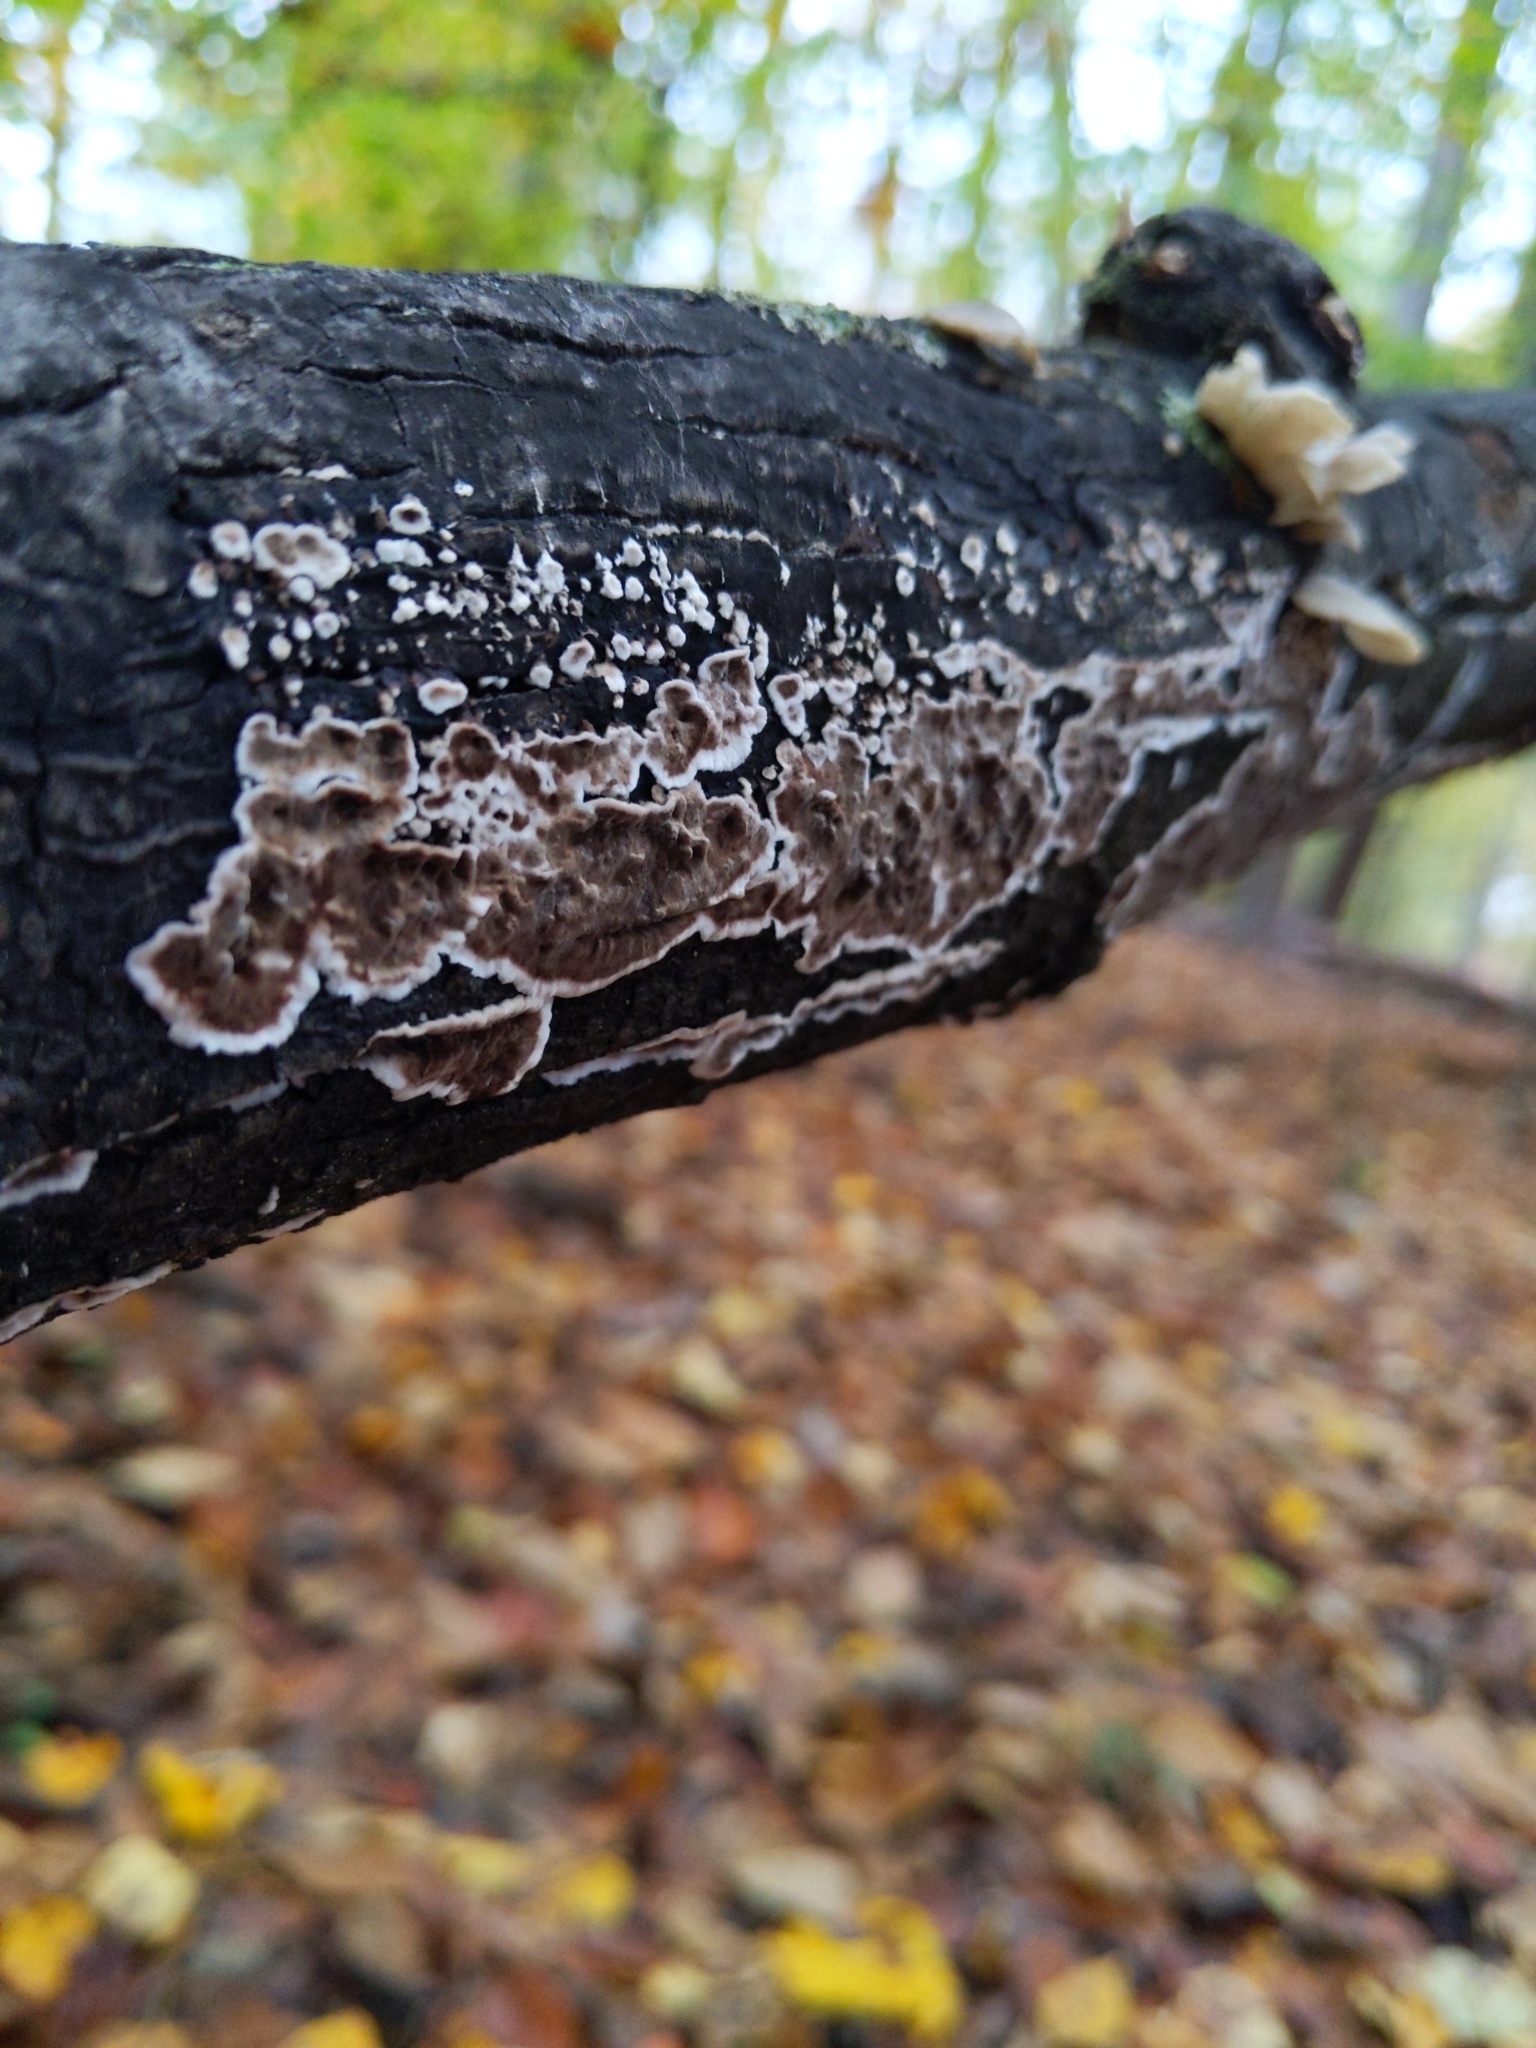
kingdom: Fungi
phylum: Basidiomycota
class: Agaricomycetes
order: Russulales
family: Peniophoraceae
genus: Peniophora
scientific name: Peniophora albobadia
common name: Giraffe spots
